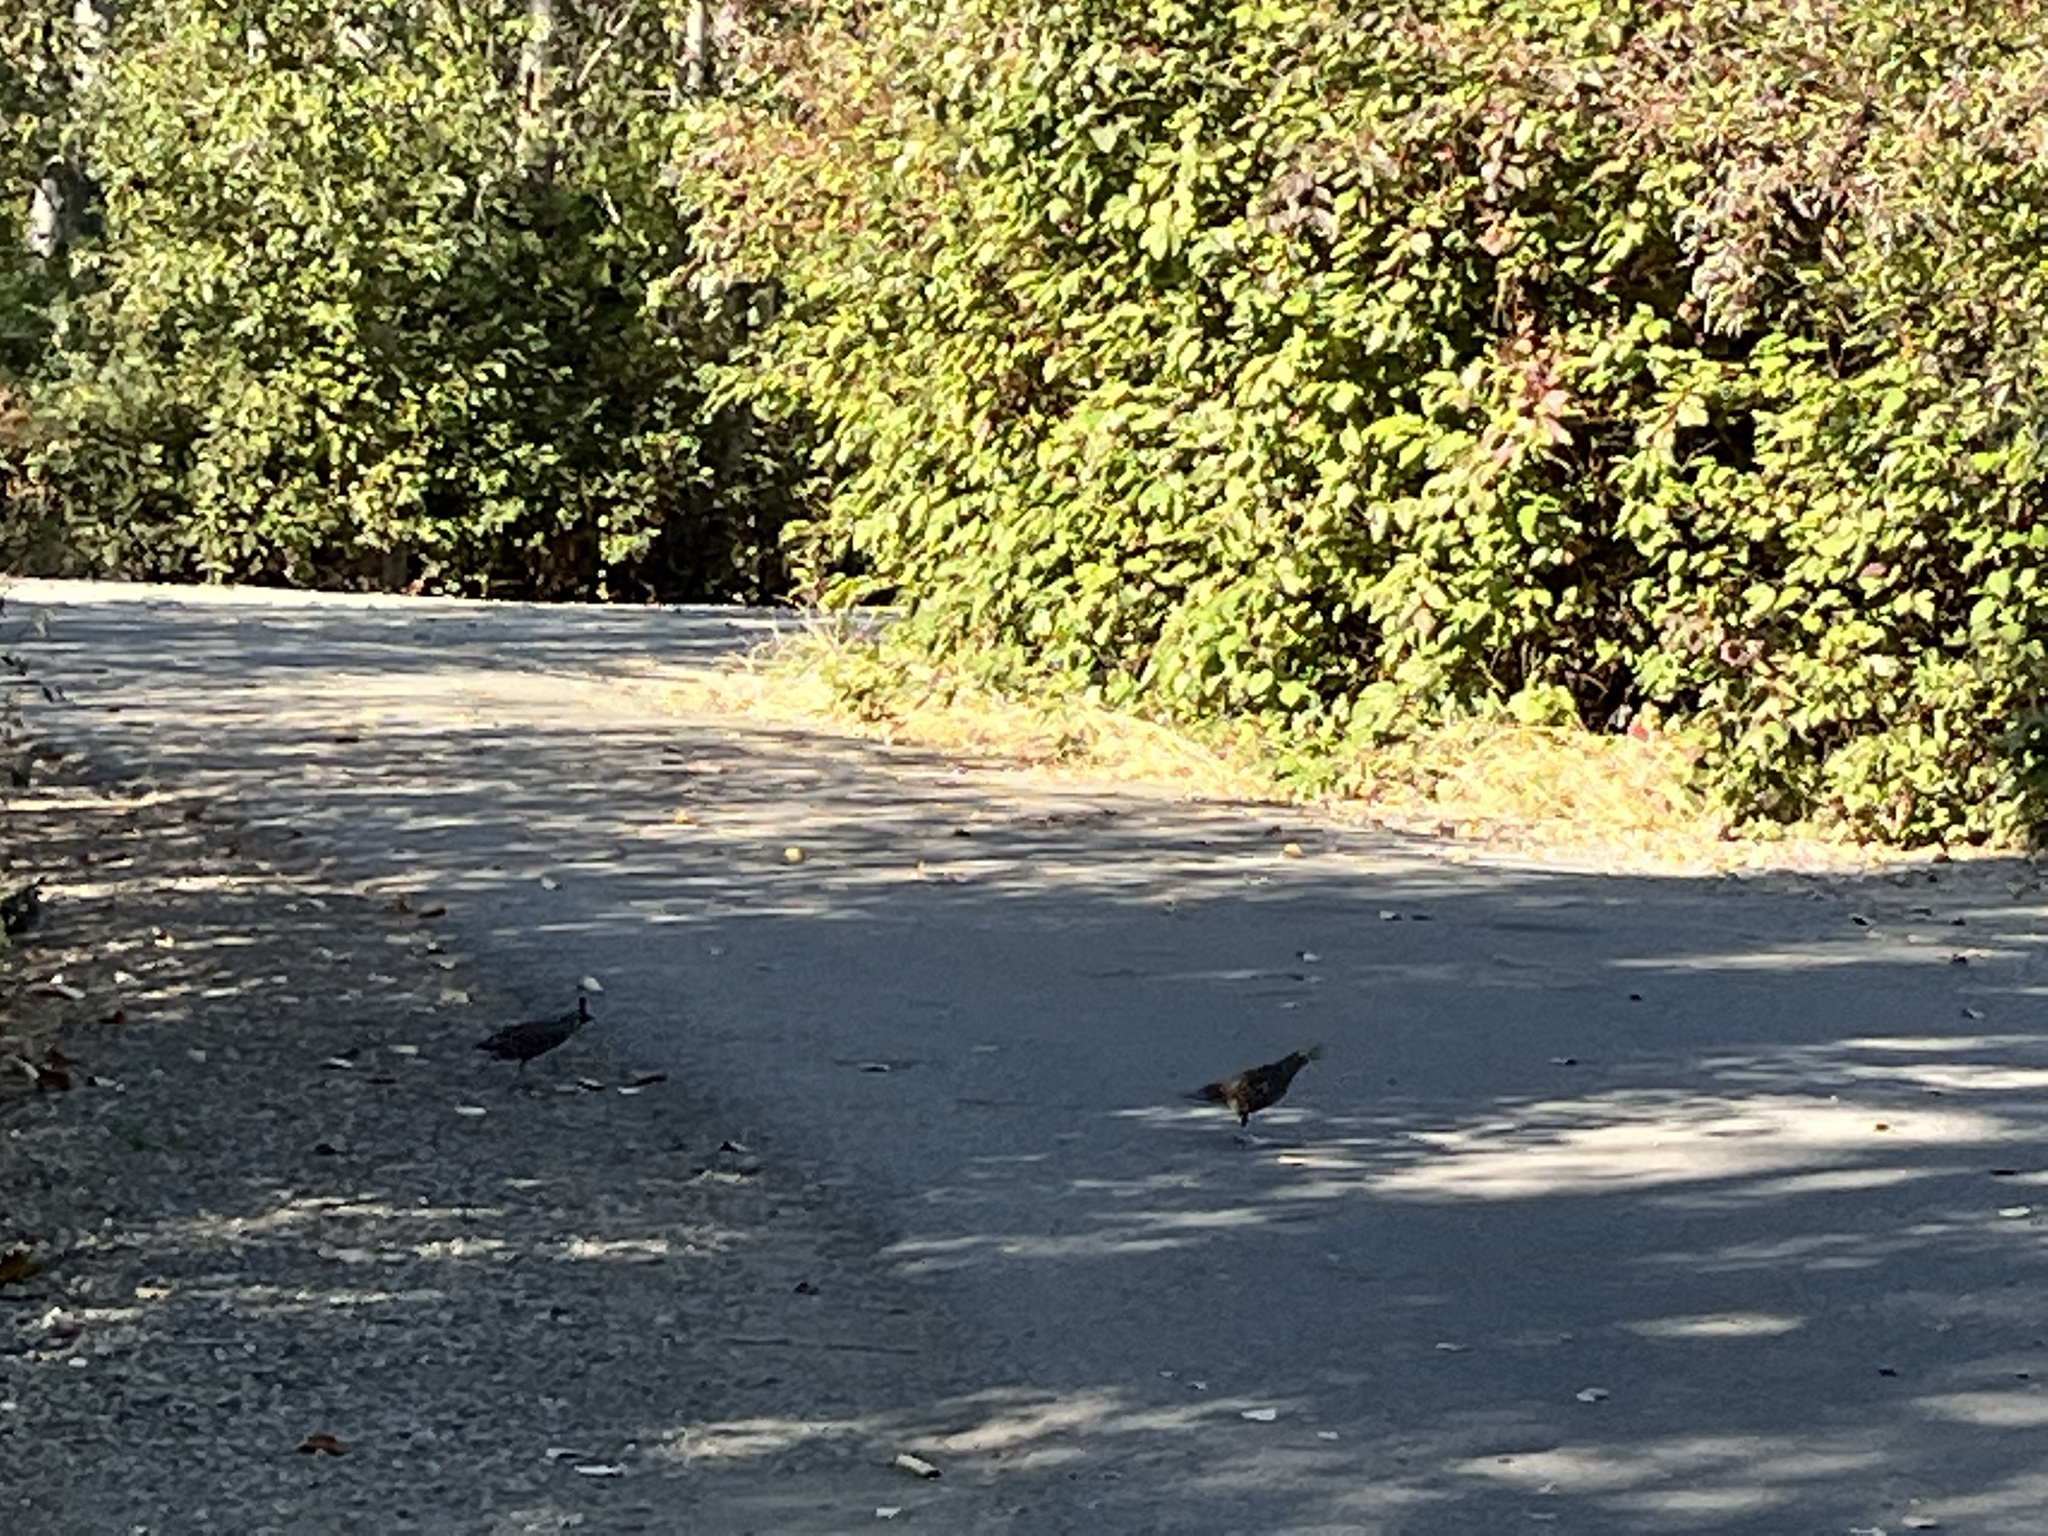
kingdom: Animalia
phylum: Chordata
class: Aves
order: Galliformes
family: Odontophoridae
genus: Callipepla
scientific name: Callipepla californica
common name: California quail
